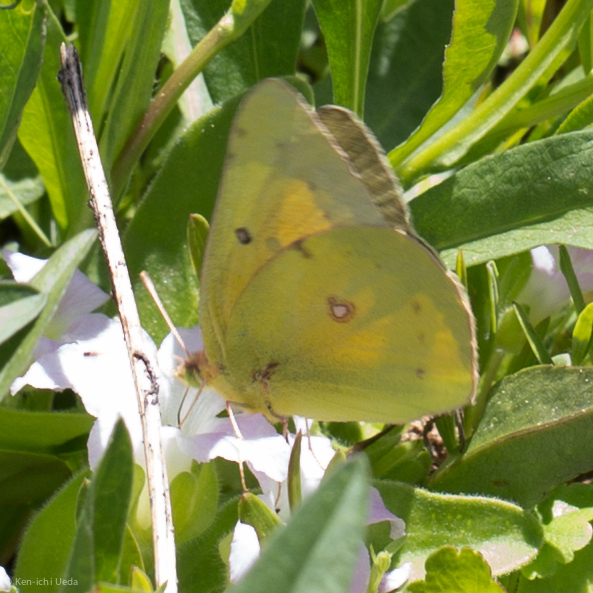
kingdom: Animalia
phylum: Arthropoda
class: Insecta
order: Lepidoptera
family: Pieridae
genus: Colias
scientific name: Colias eurytheme
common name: Alfalfa butterfly
